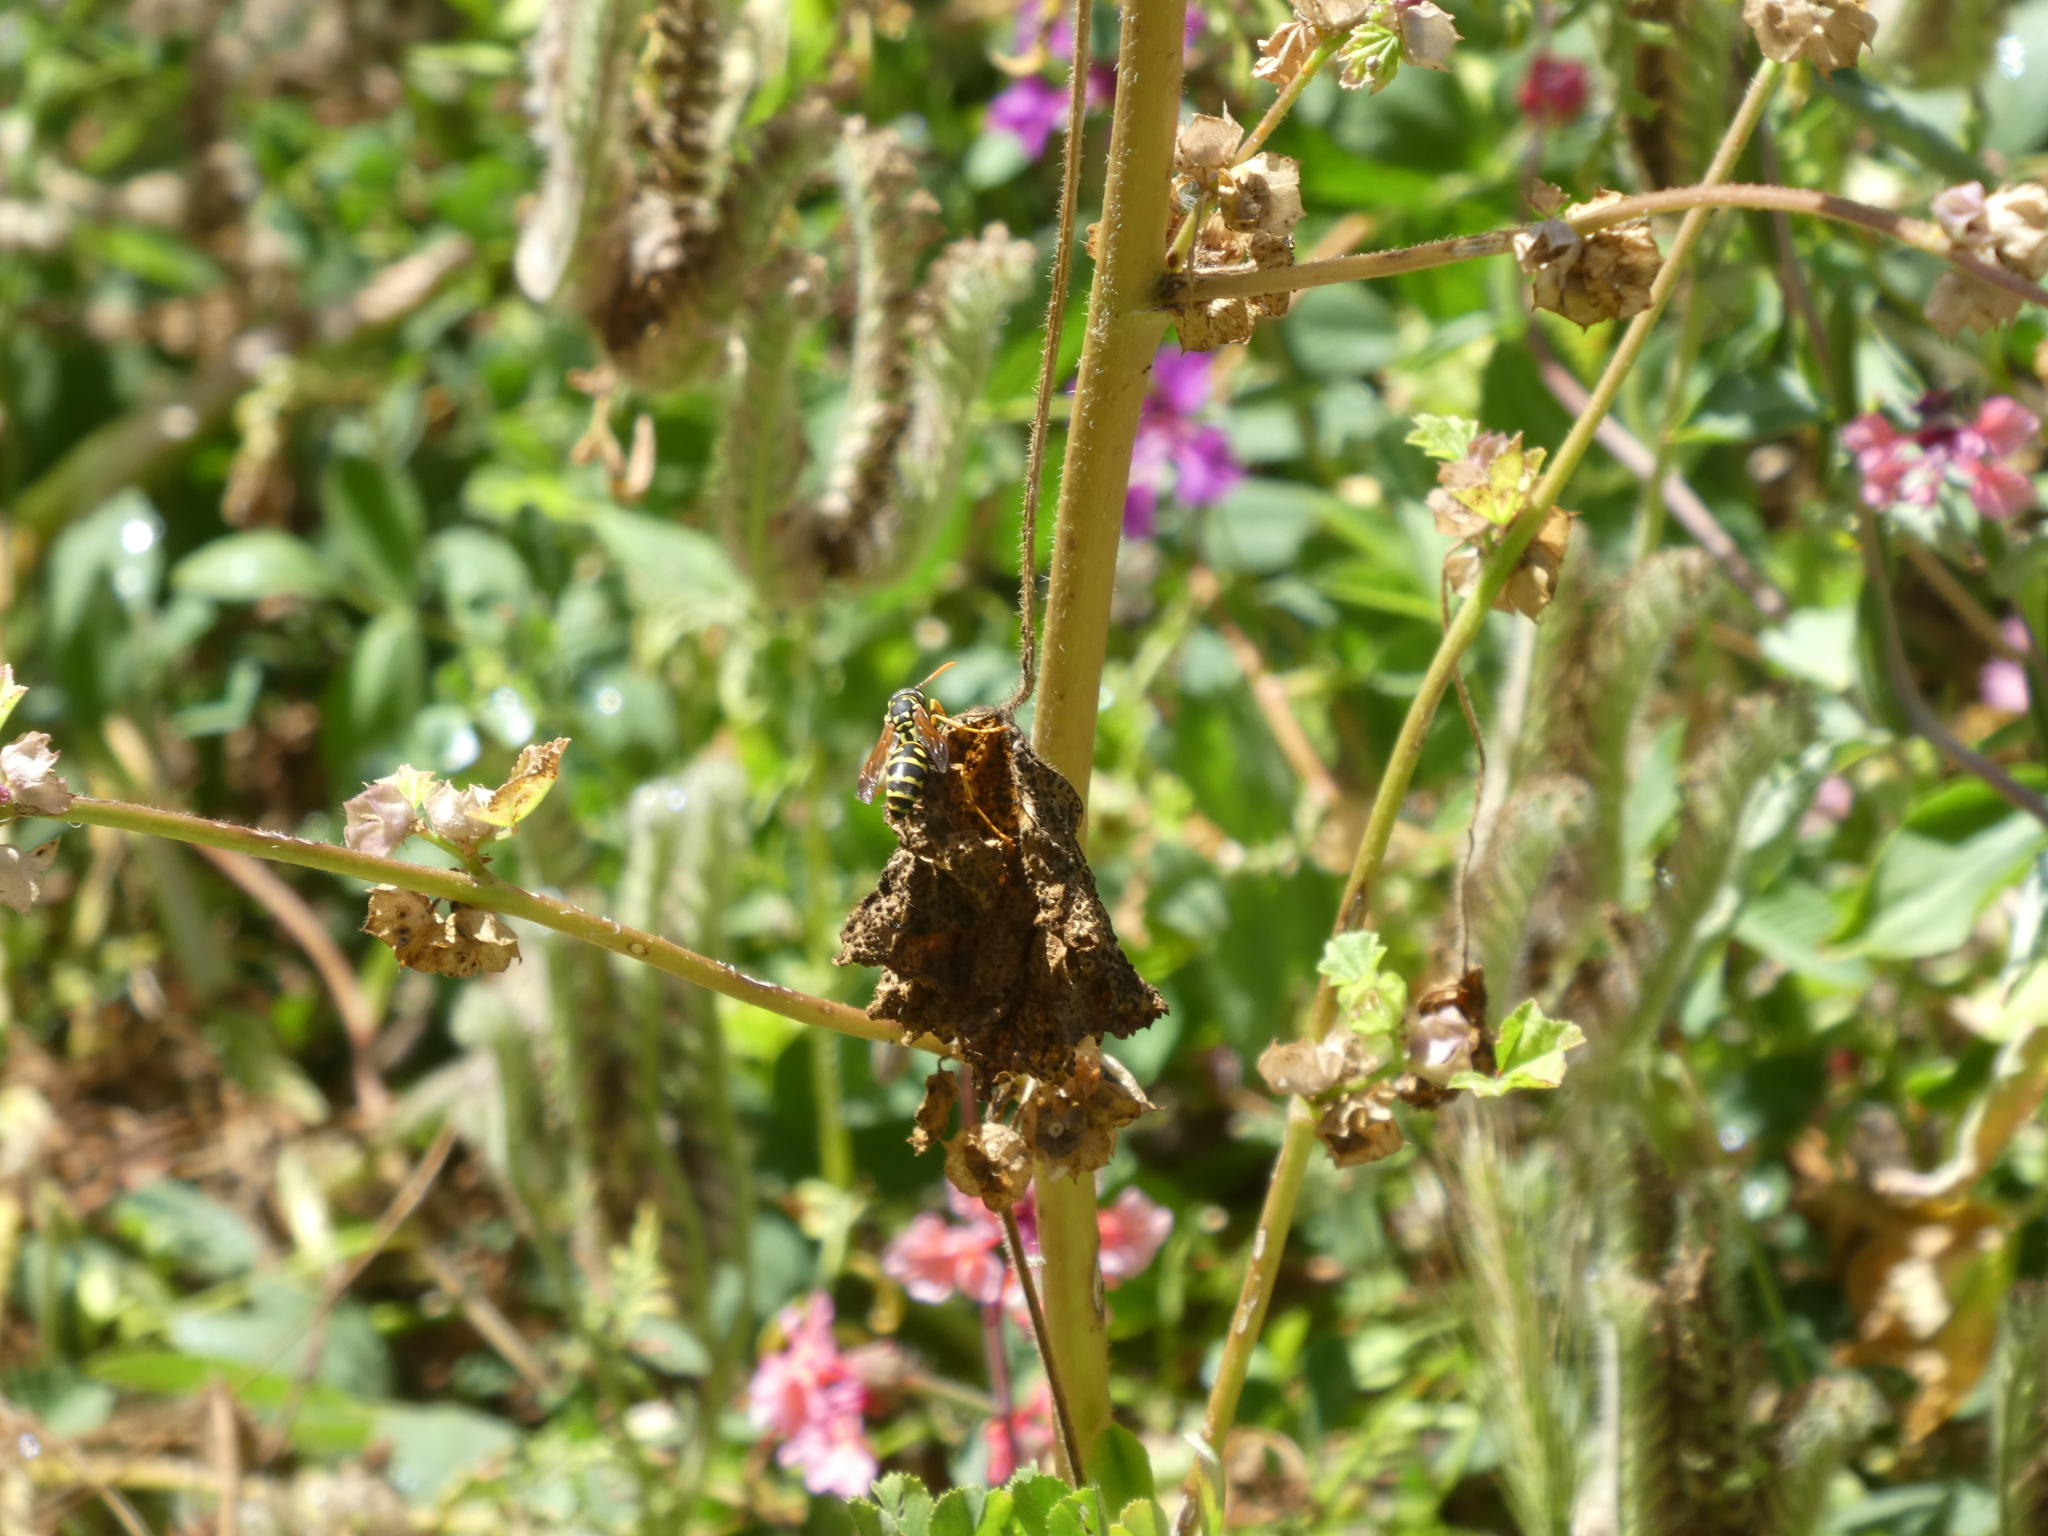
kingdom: Animalia
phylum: Arthropoda
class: Insecta
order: Hymenoptera
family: Eumenidae
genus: Polistes
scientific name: Polistes dominula
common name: Paper wasp
